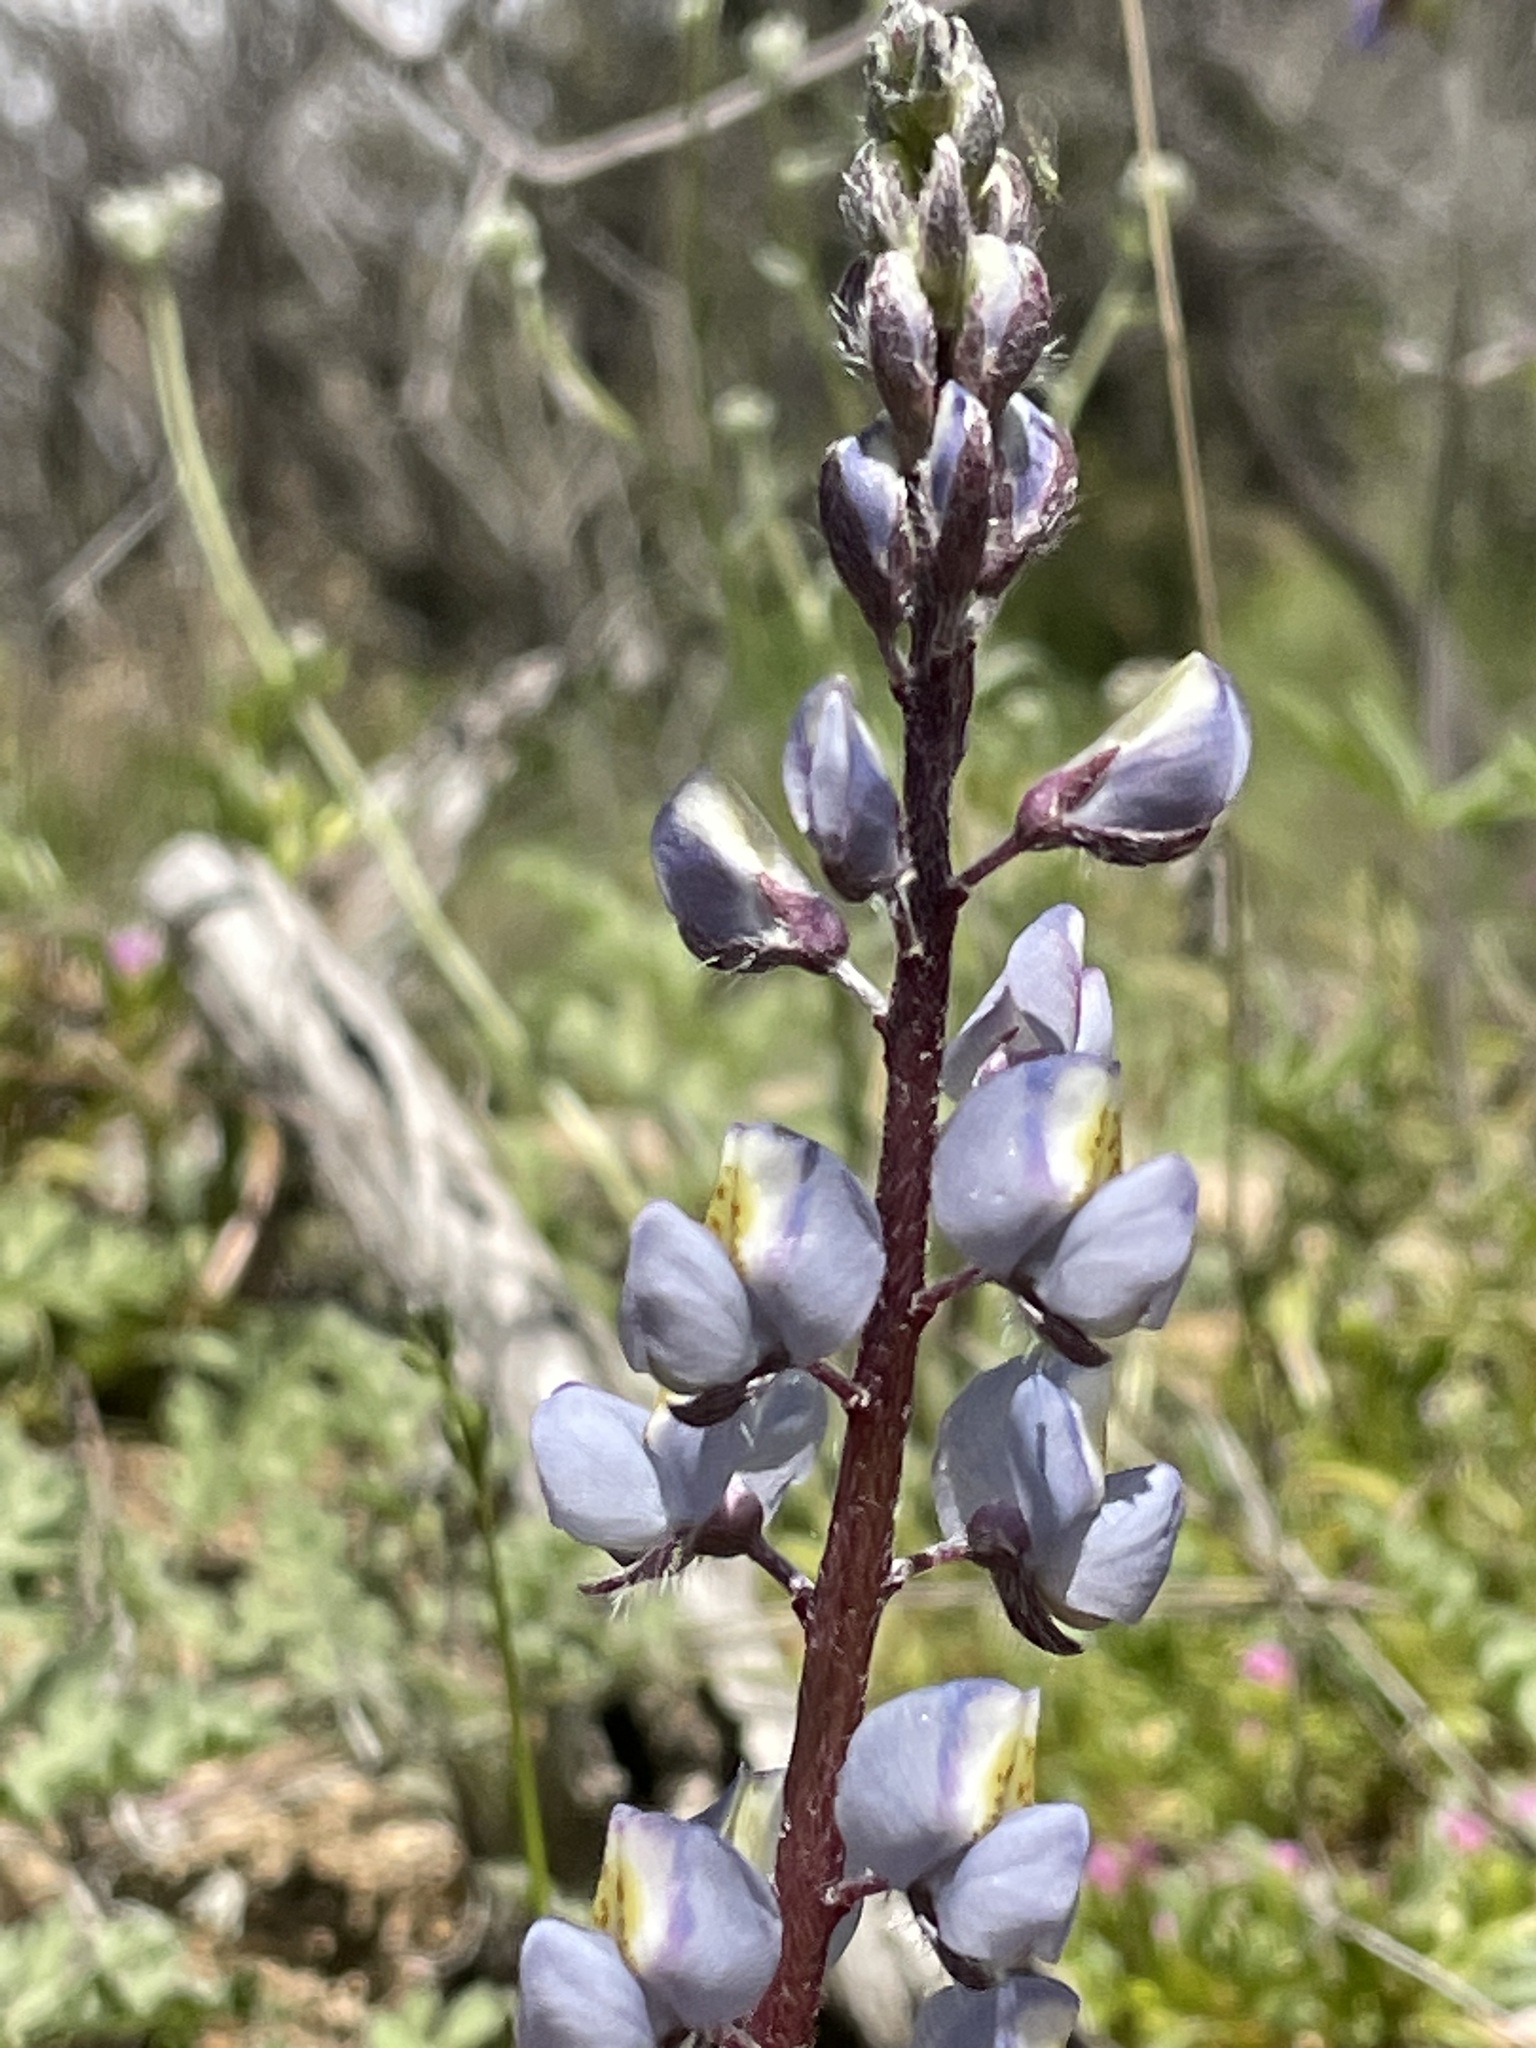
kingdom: Plantae
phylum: Tracheophyta
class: Magnoliopsida
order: Fabales
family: Fabaceae
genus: Lupinus
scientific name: Lupinus sparsiflorus
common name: Coulter's lupine
